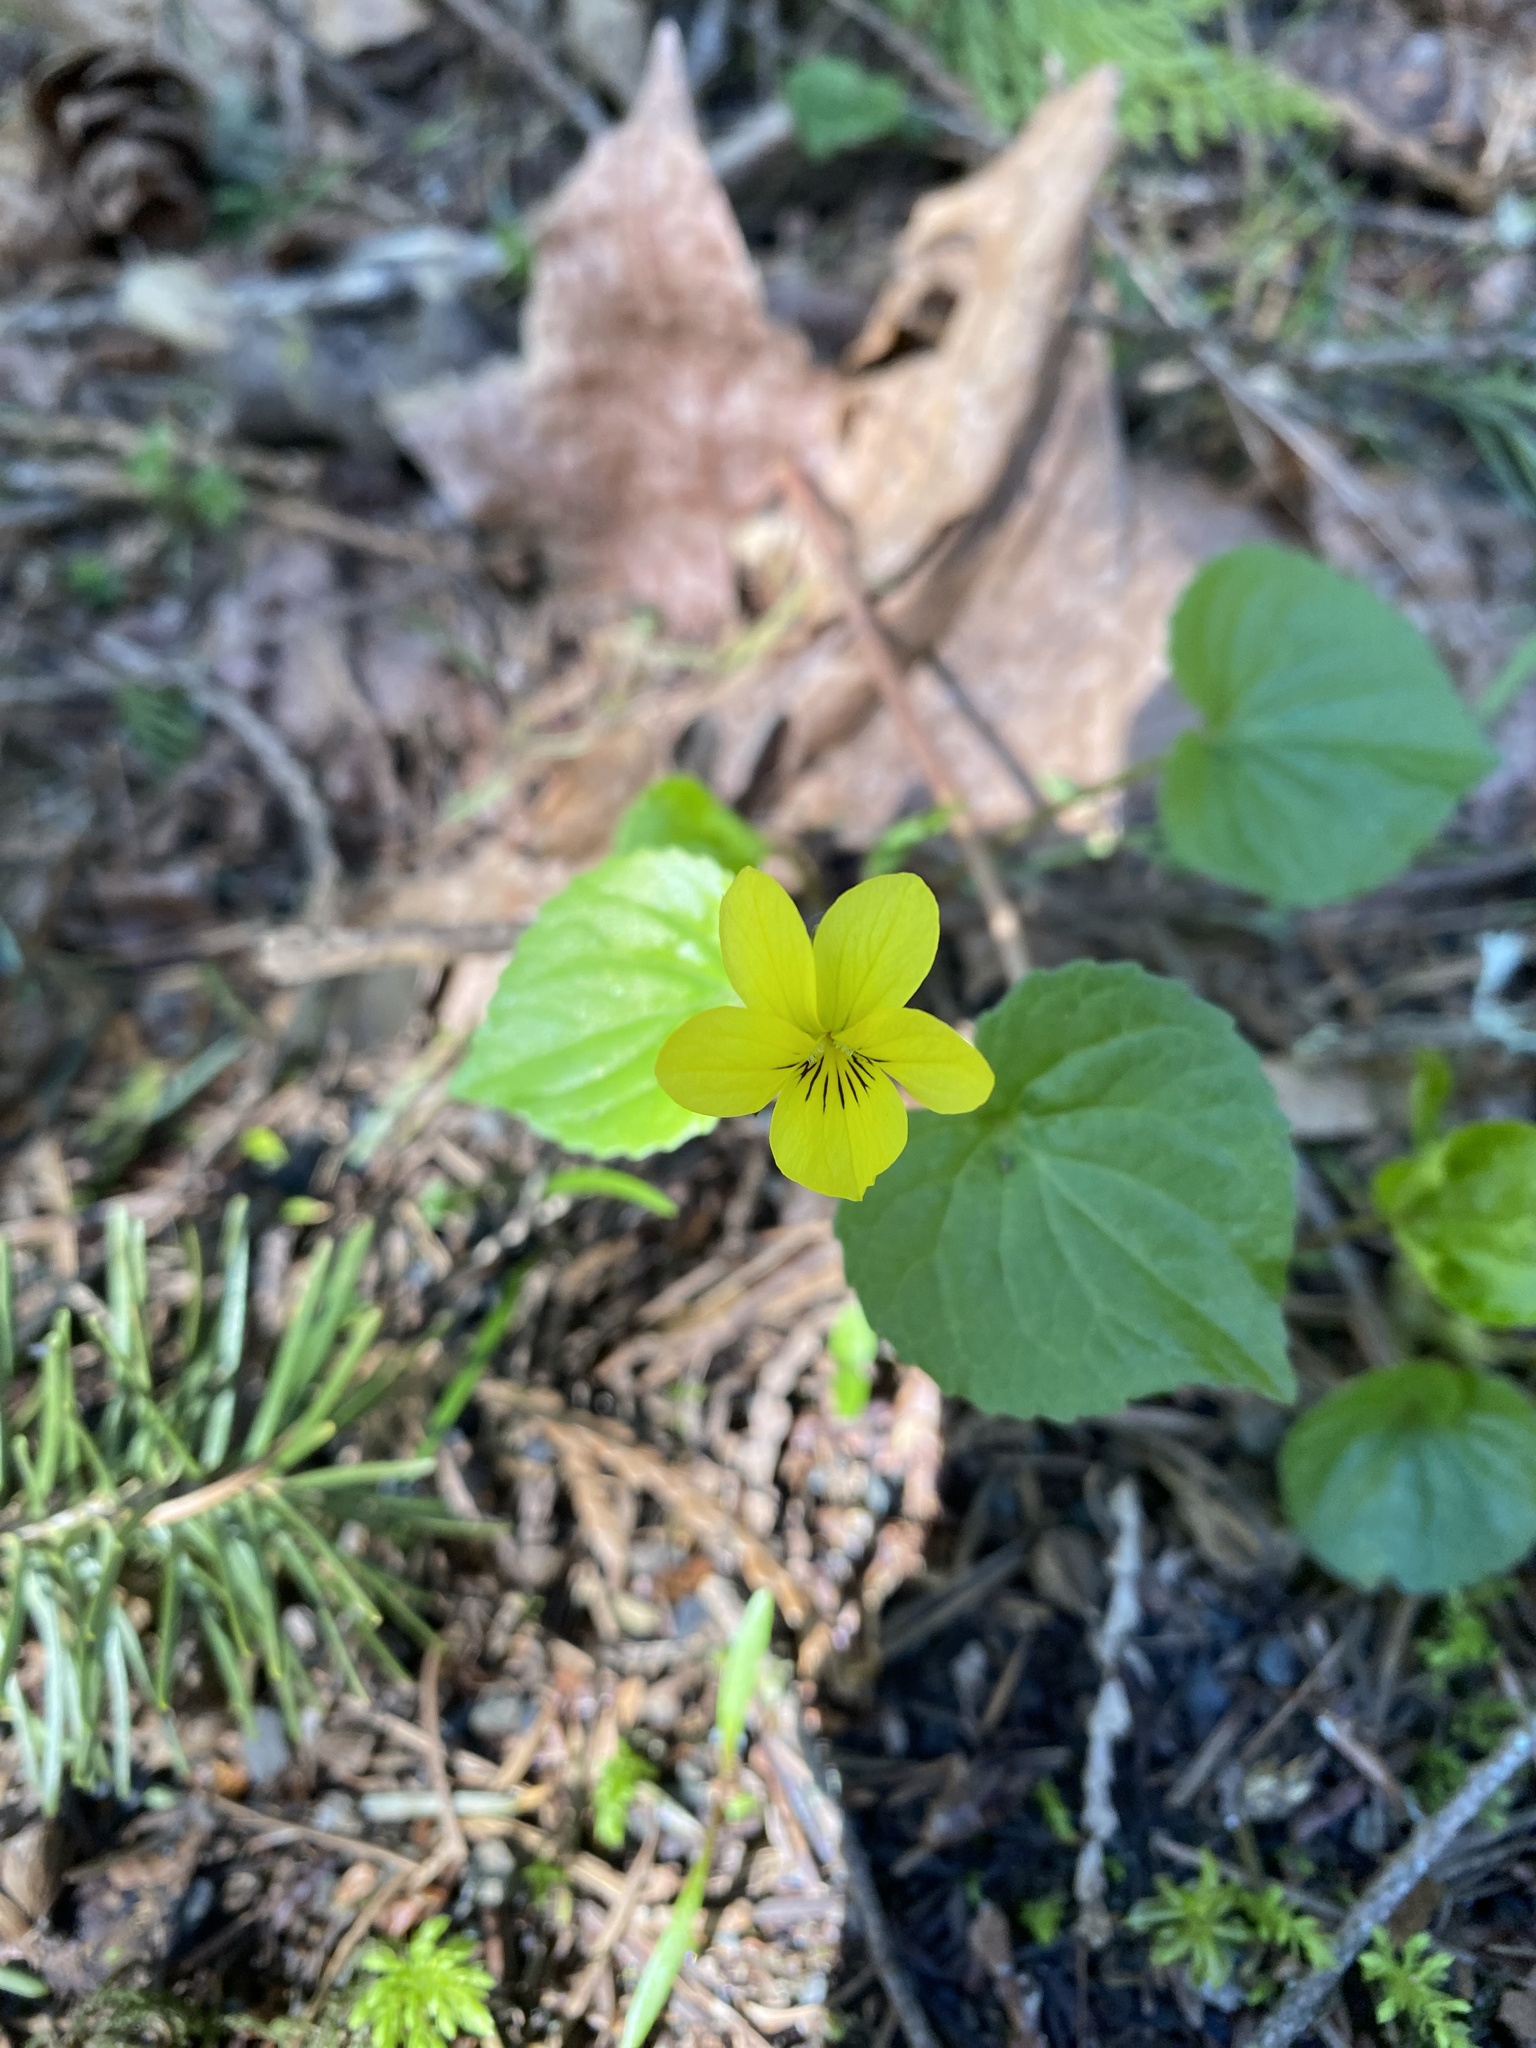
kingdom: Plantae
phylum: Tracheophyta
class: Magnoliopsida
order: Malpighiales
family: Violaceae
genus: Viola
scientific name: Viola glabella
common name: Stream violet
